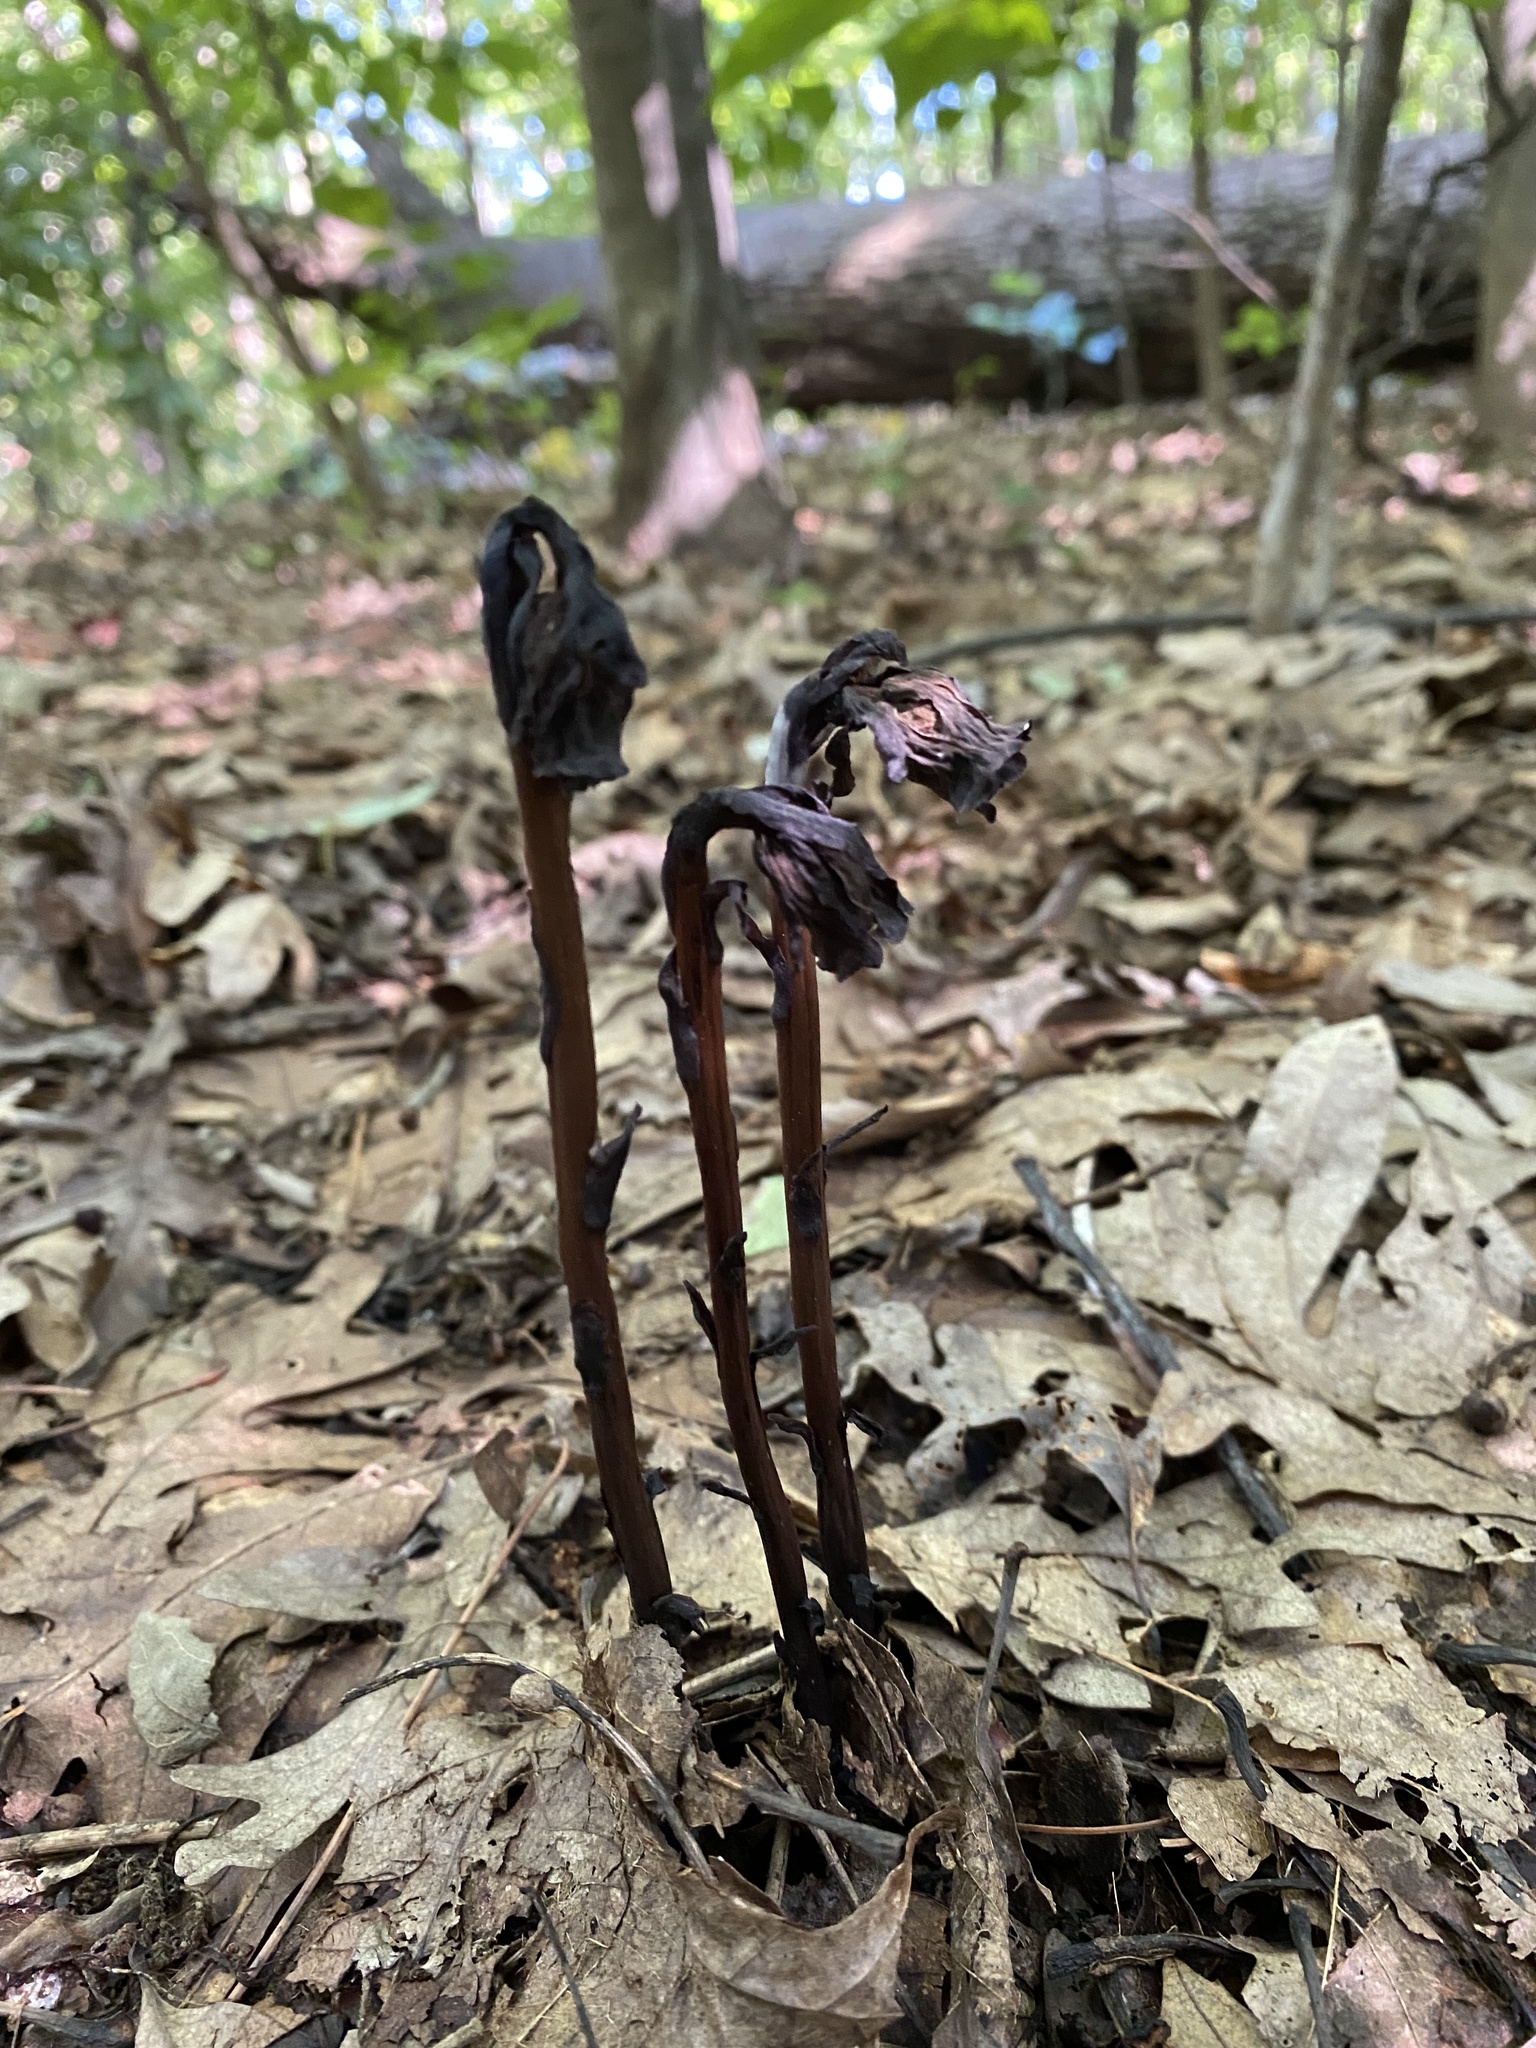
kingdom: Plantae
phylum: Tracheophyta
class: Magnoliopsida
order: Ericales
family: Ericaceae
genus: Monotropa
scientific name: Monotropa uniflora
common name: Convulsion root
